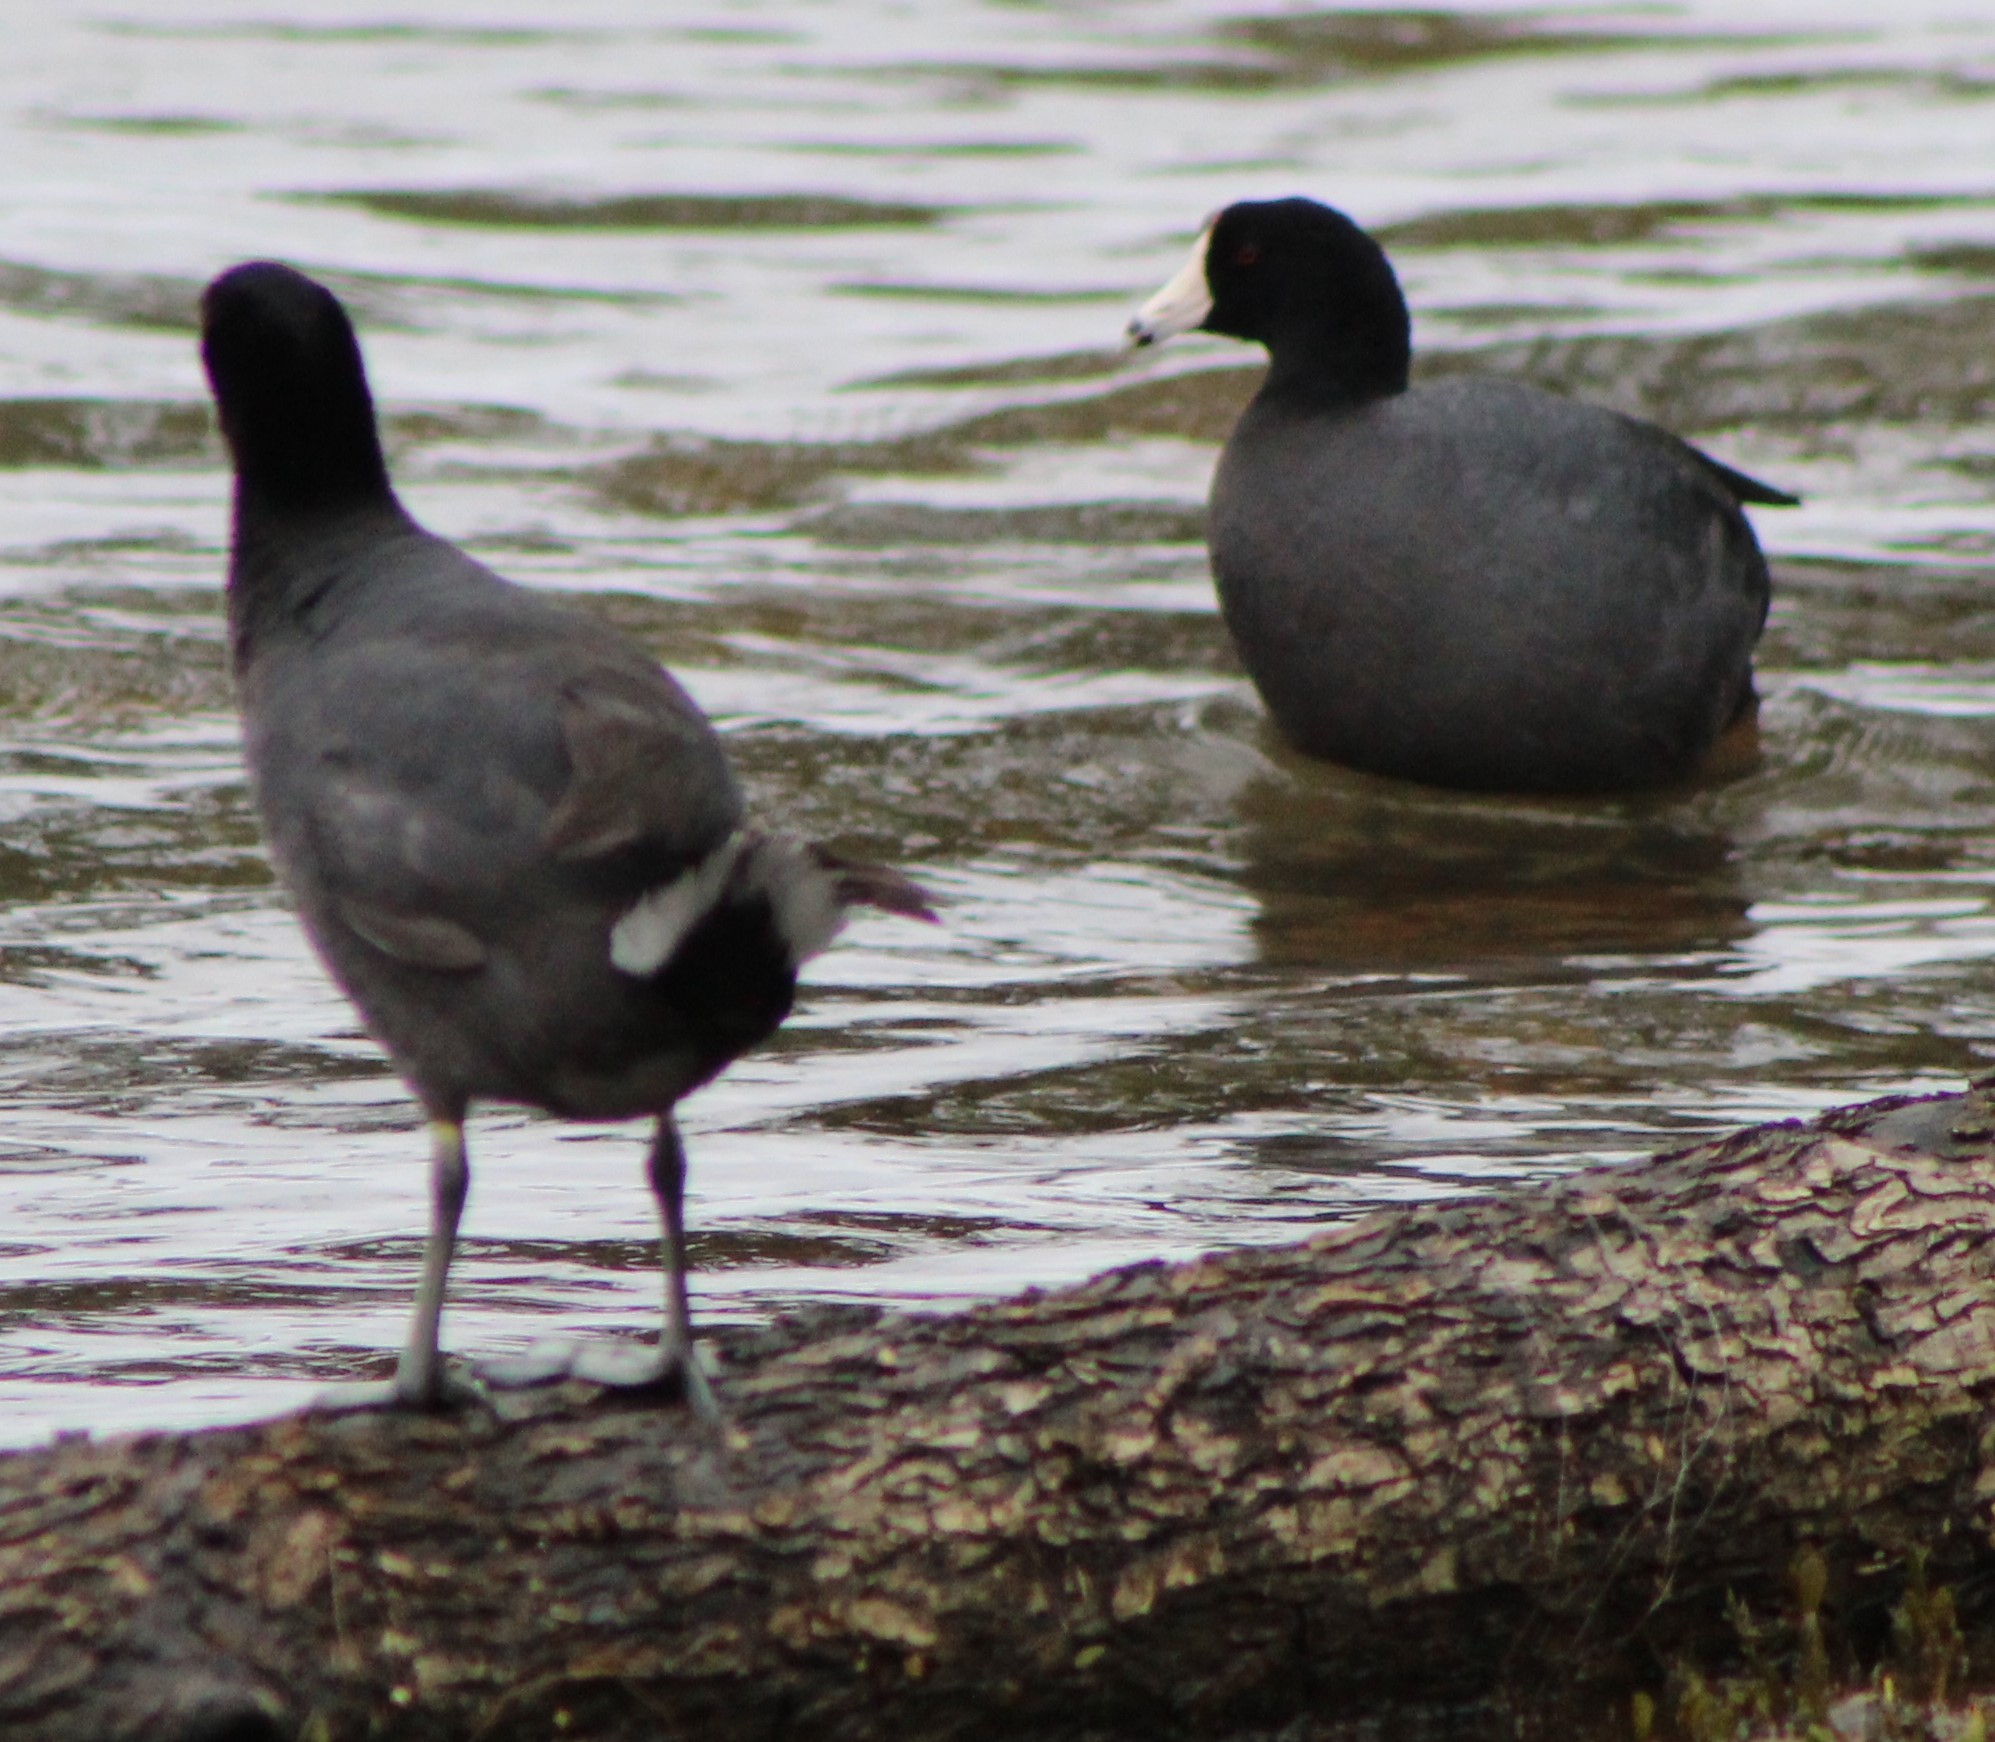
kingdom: Animalia
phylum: Chordata
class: Aves
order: Gruiformes
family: Rallidae
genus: Fulica
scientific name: Fulica americana
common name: American coot
